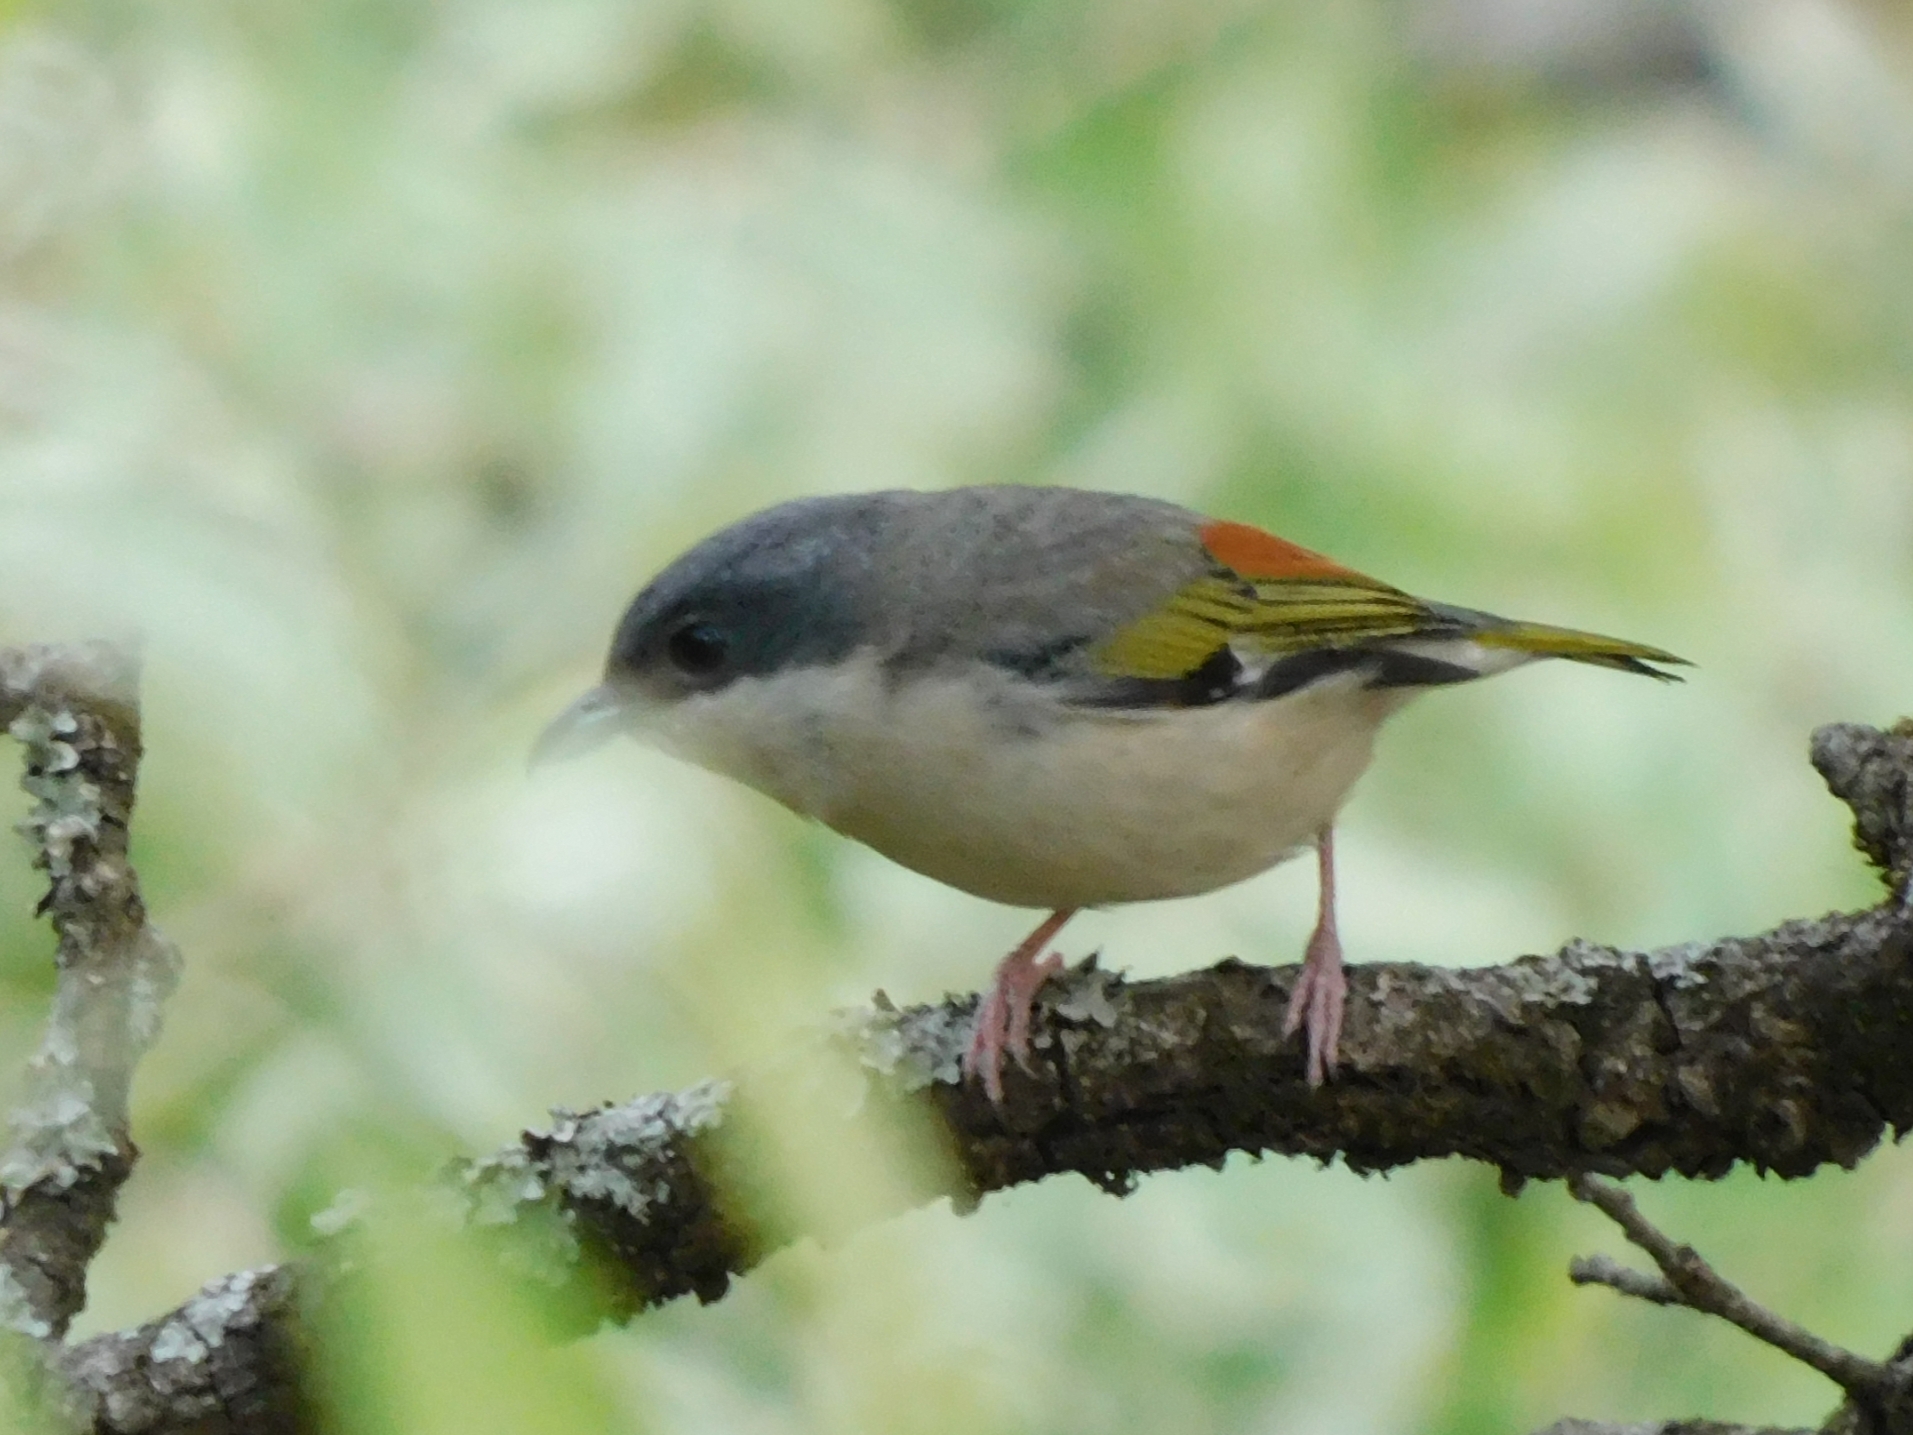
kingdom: Animalia
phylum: Chordata
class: Aves
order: Passeriformes
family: Vireonidae
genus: Pteruthius
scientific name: Pteruthius aeralatus
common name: Blyth's shrike-babbler
